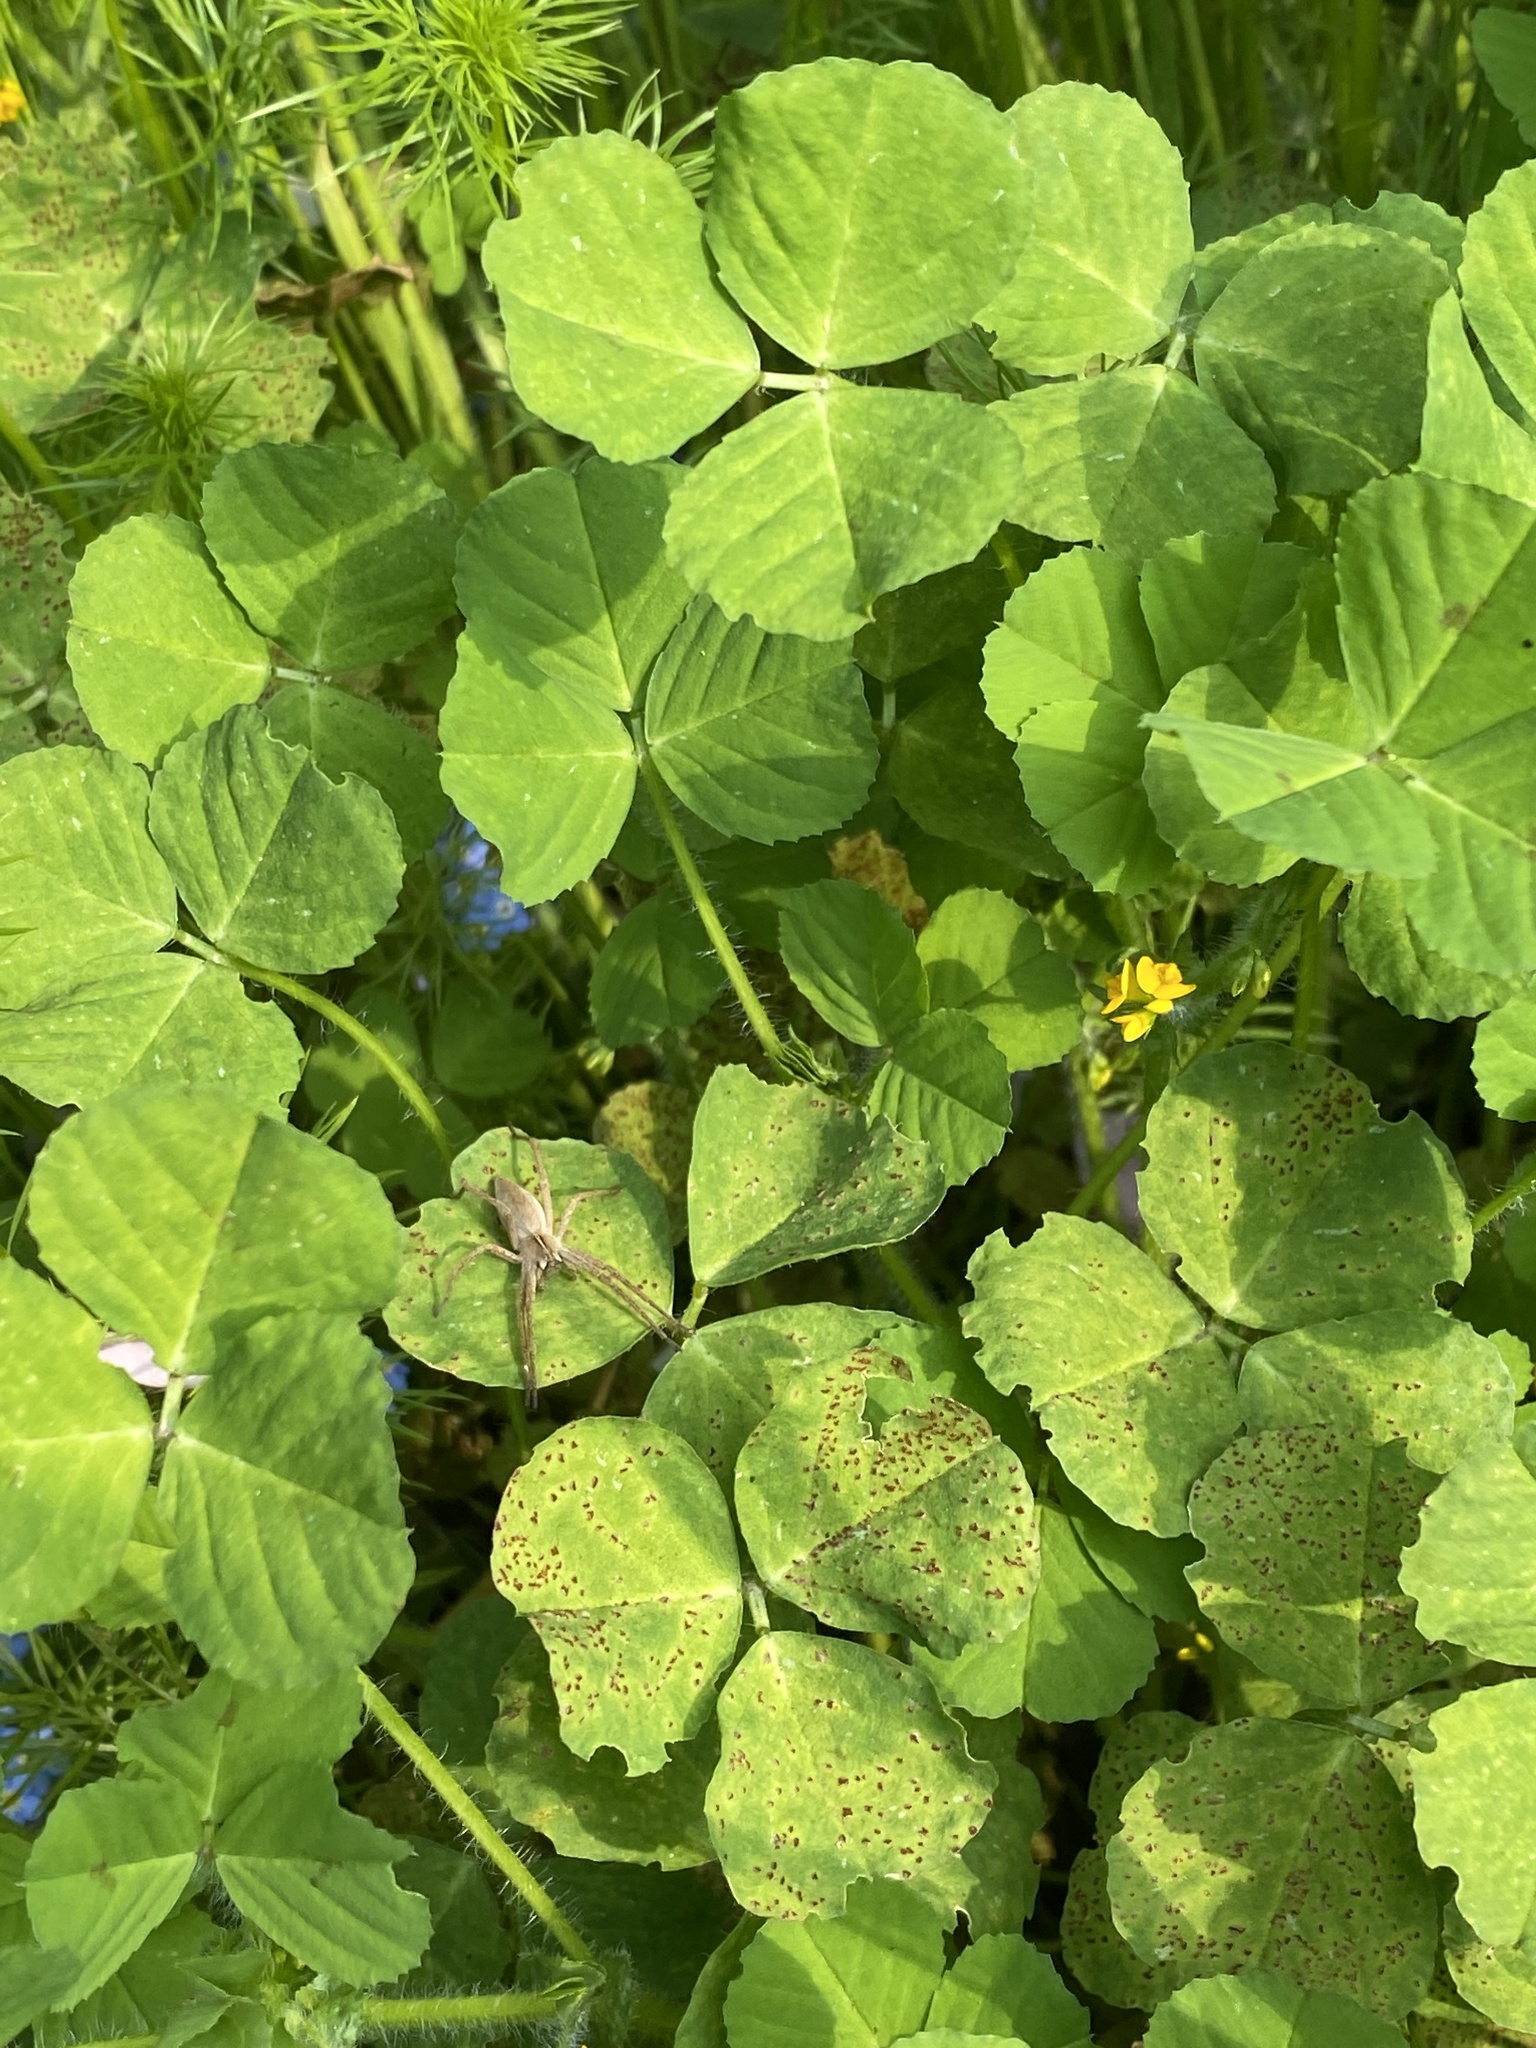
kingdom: Animalia
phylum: Arthropoda
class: Arachnida
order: Araneae
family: Pisauridae
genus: Pisaura
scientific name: Pisaura mirabilis
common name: Tent spider
